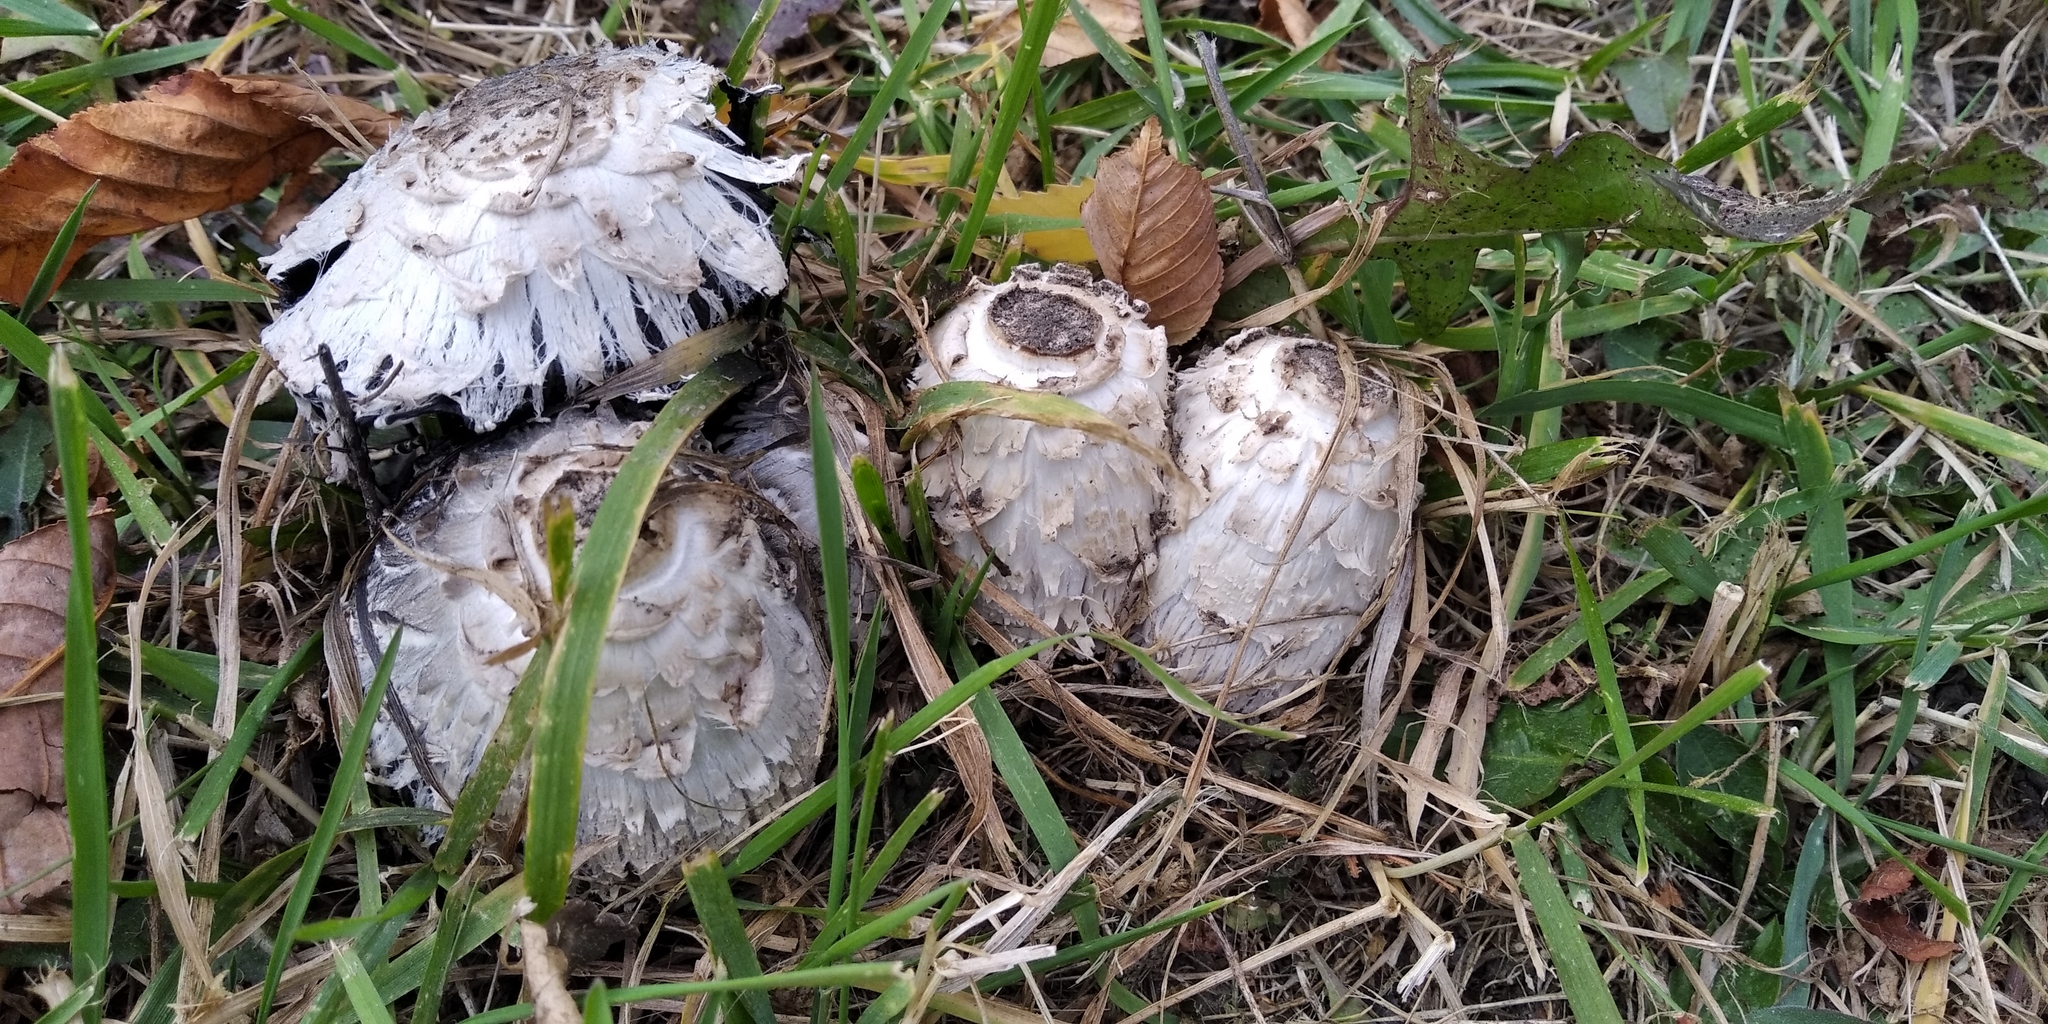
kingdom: Fungi
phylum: Basidiomycota
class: Agaricomycetes
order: Agaricales
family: Agaricaceae
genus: Coprinus
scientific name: Coprinus comatus
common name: Lawyer's wig
